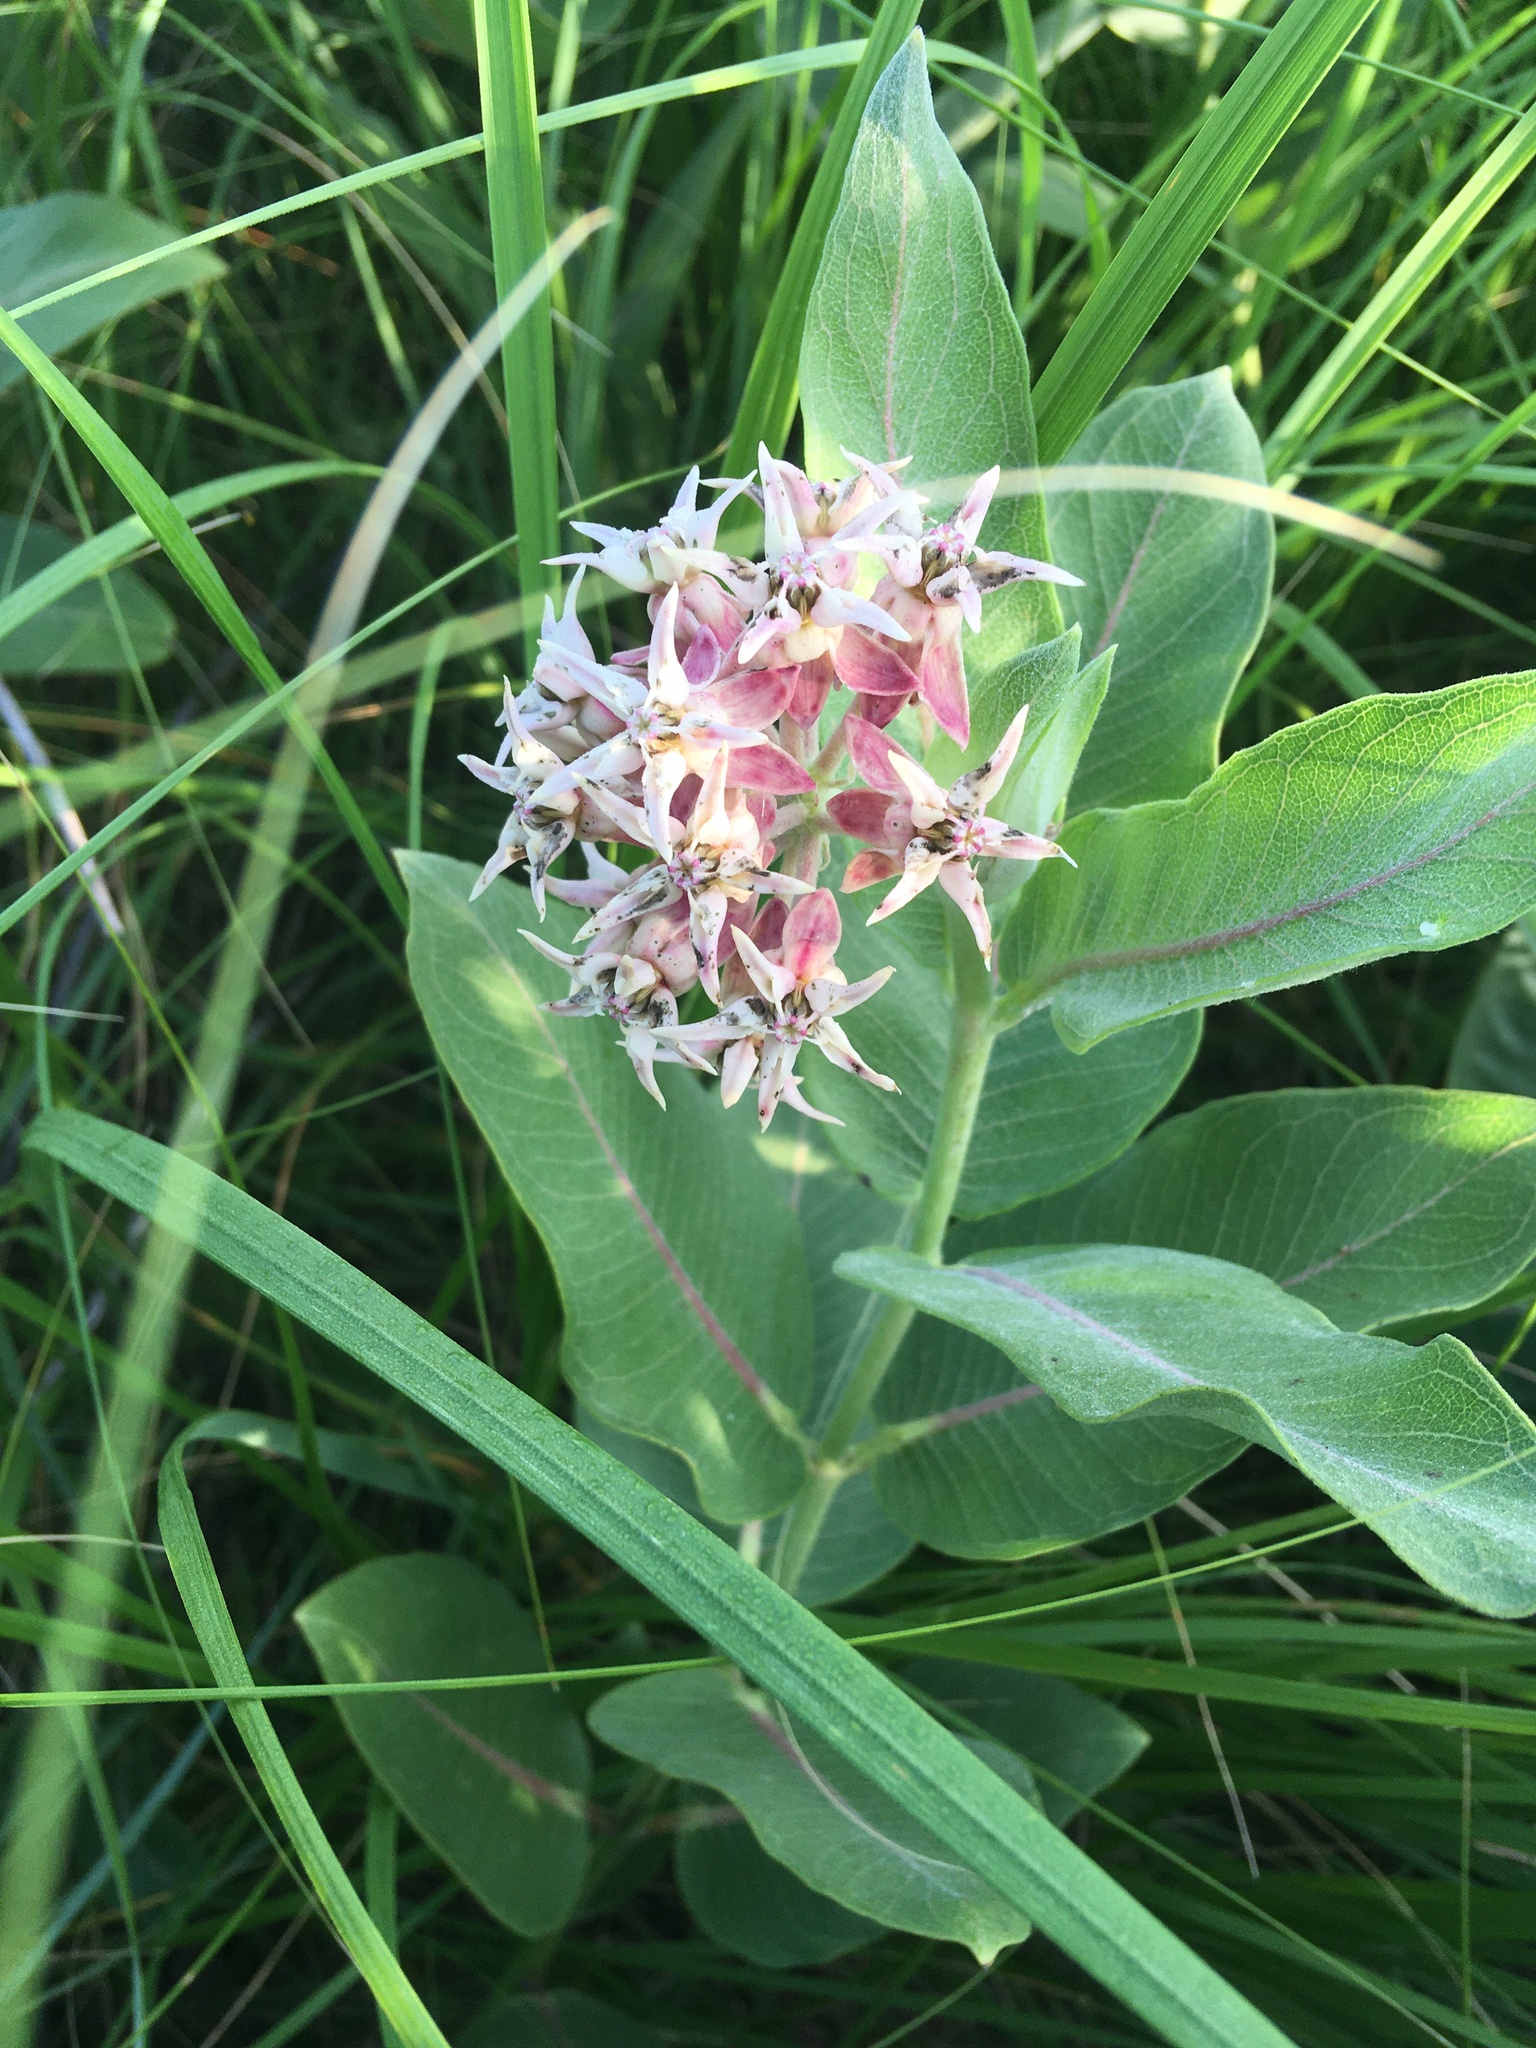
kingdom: Plantae
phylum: Tracheophyta
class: Magnoliopsida
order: Gentianales
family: Apocynaceae
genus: Asclepias
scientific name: Asclepias speciosa
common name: Showy milkweed
